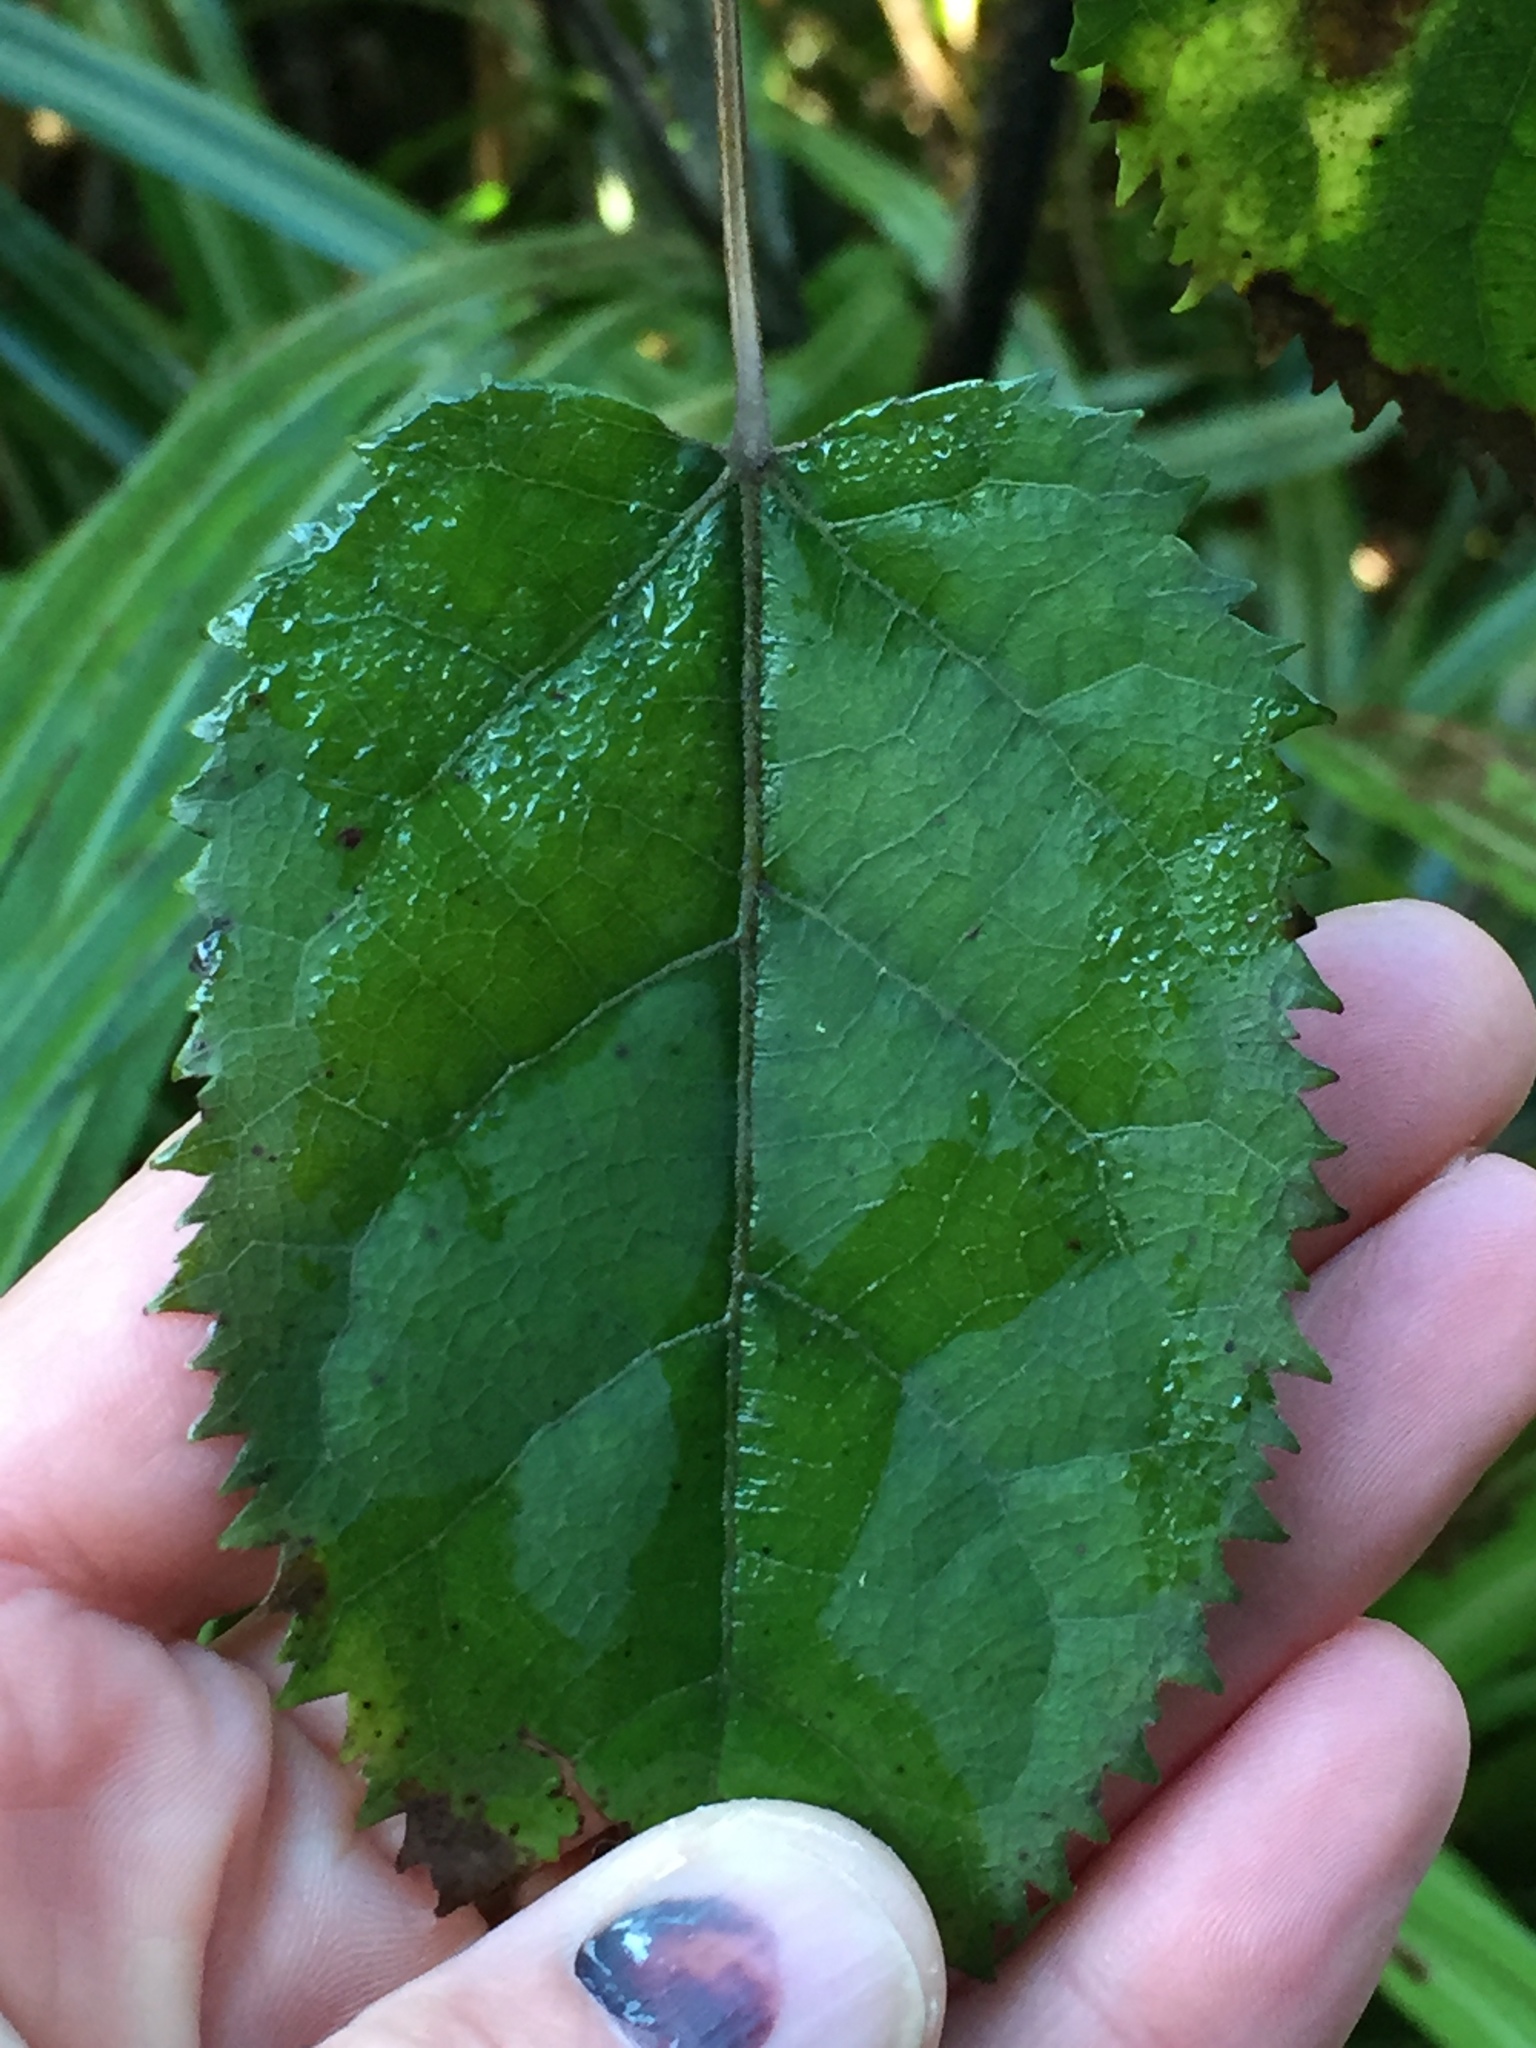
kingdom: Plantae
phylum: Tracheophyta
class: Magnoliopsida
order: Oxalidales
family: Elaeocarpaceae
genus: Aristotelia
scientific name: Aristotelia serrata
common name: New zealand wineberry
